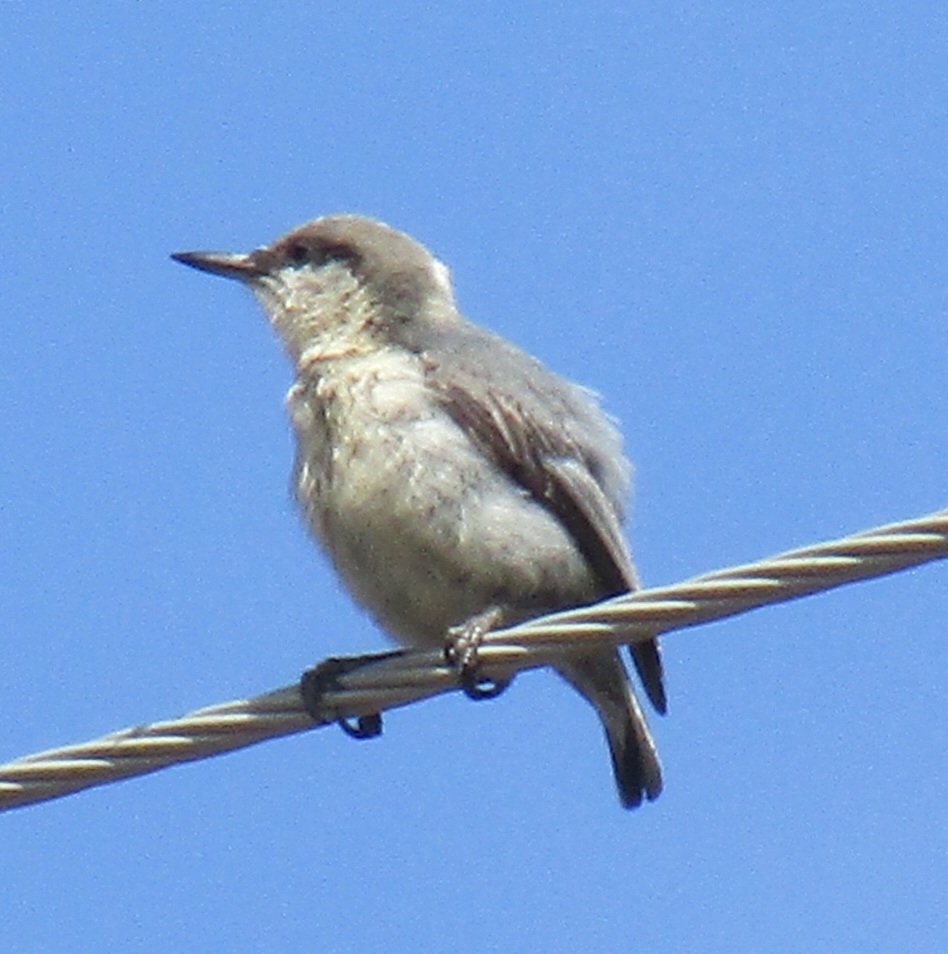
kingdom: Animalia
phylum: Chordata
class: Aves
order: Passeriformes
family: Sittidae
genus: Sitta
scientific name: Sitta pygmaea
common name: Pygmy nuthatch
